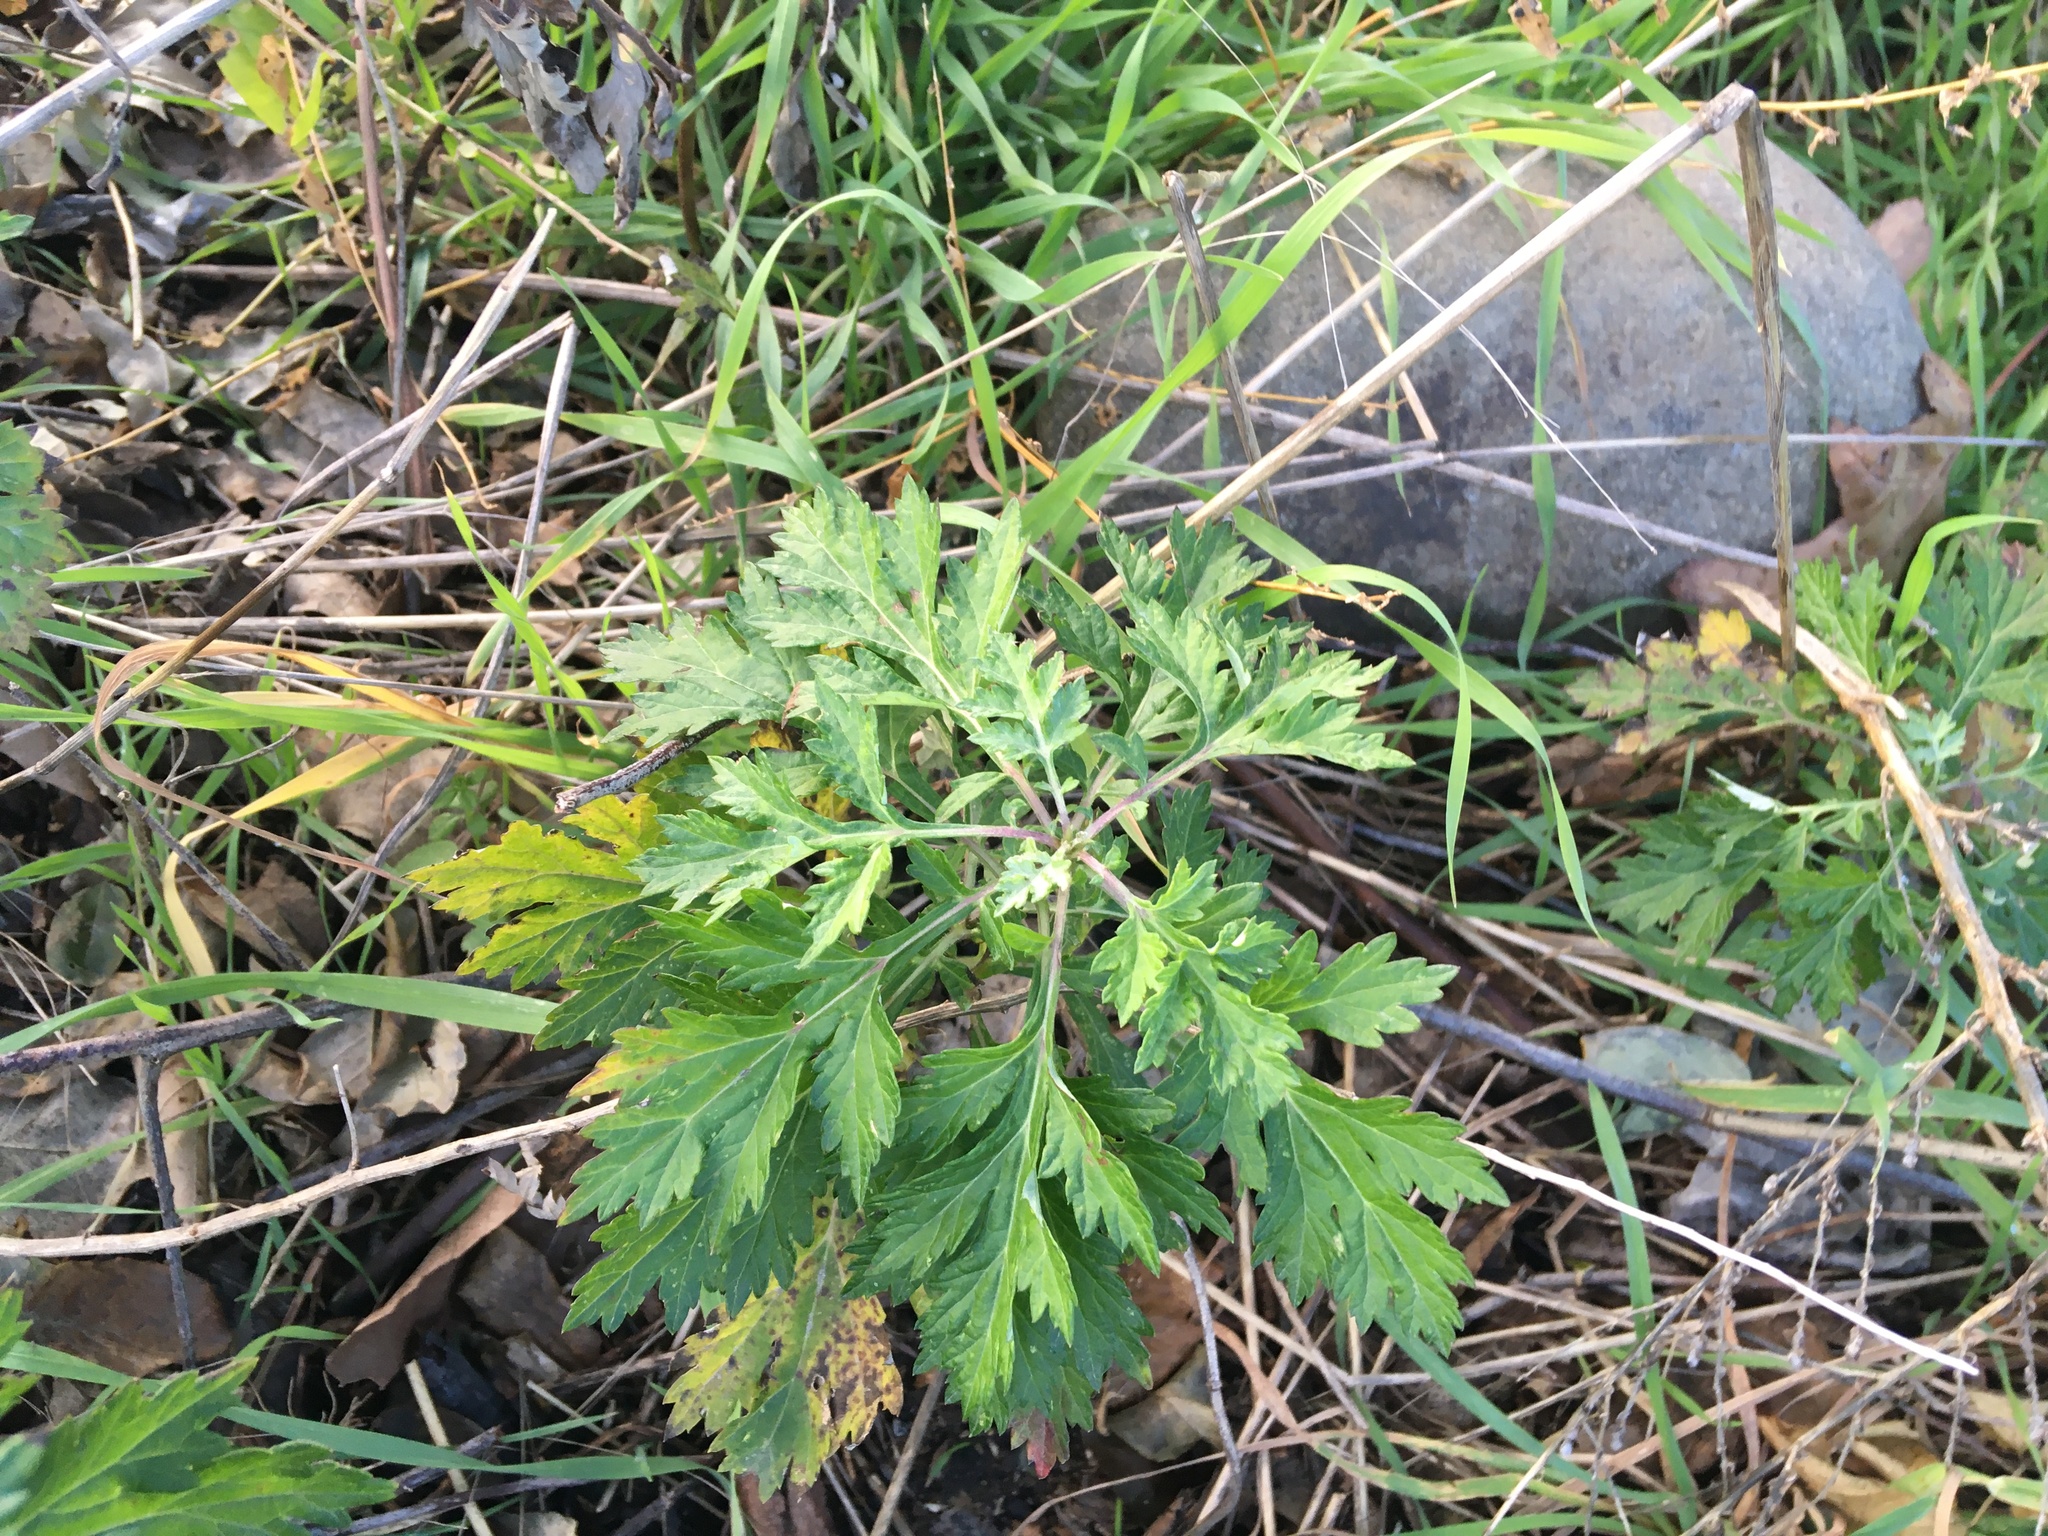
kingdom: Plantae
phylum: Tracheophyta
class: Magnoliopsida
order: Asterales
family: Asteraceae
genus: Artemisia
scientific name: Artemisia vulgaris
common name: Mugwort
